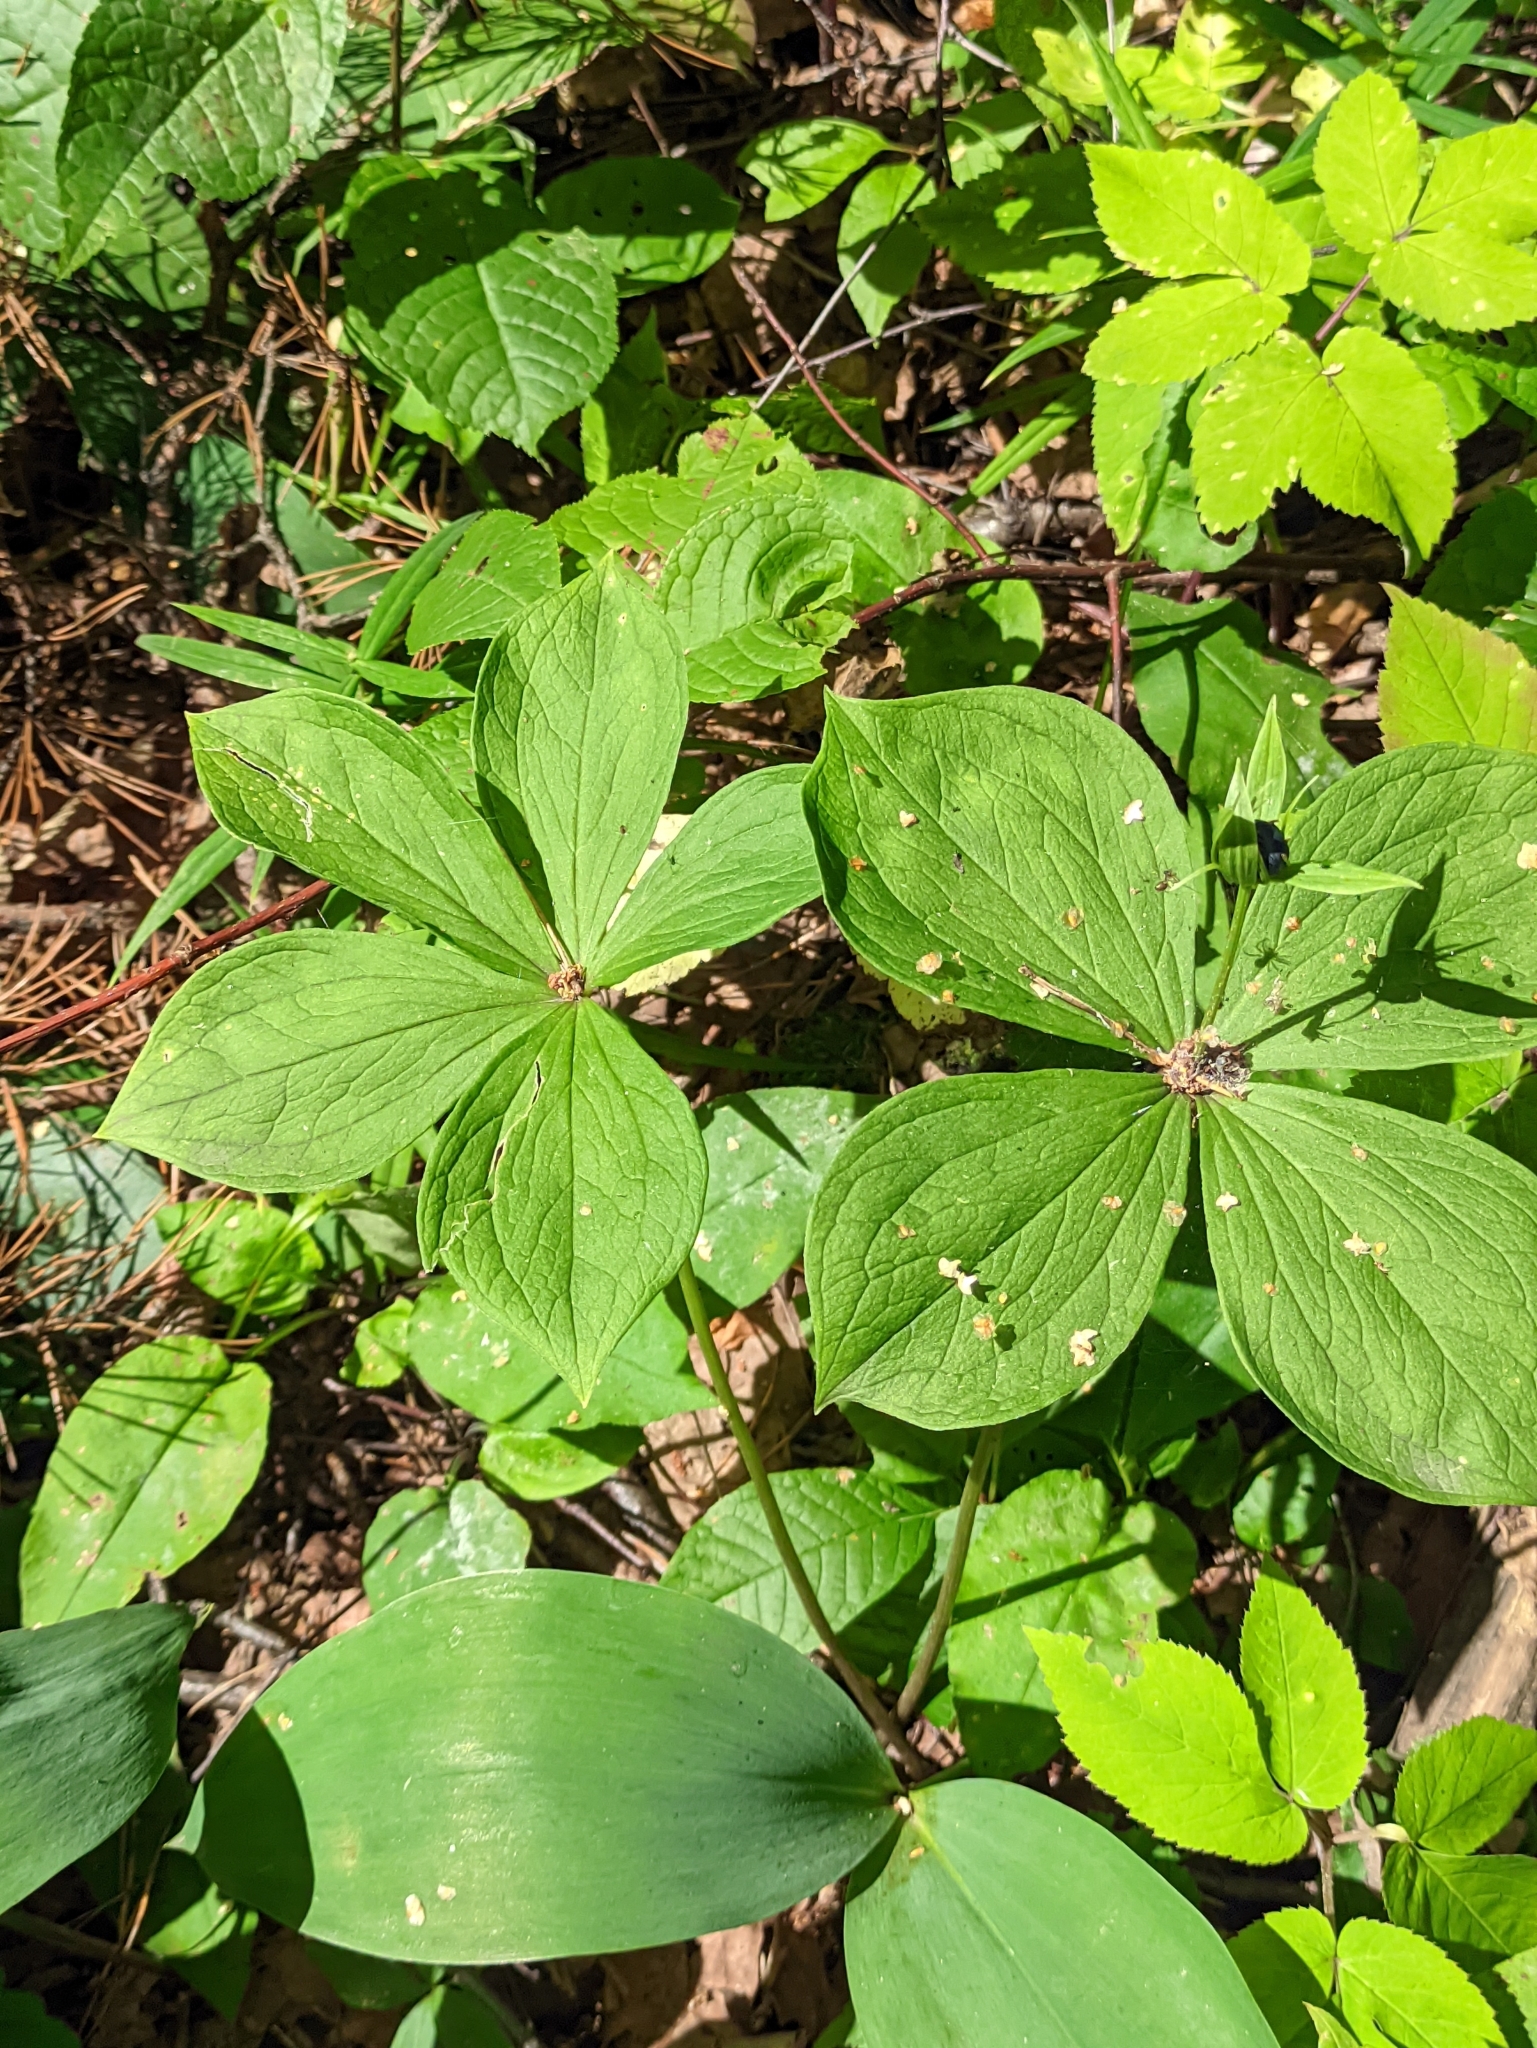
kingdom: Plantae
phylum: Tracheophyta
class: Liliopsida
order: Liliales
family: Melanthiaceae
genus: Paris
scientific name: Paris quadrifolia
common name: Herb-paris
